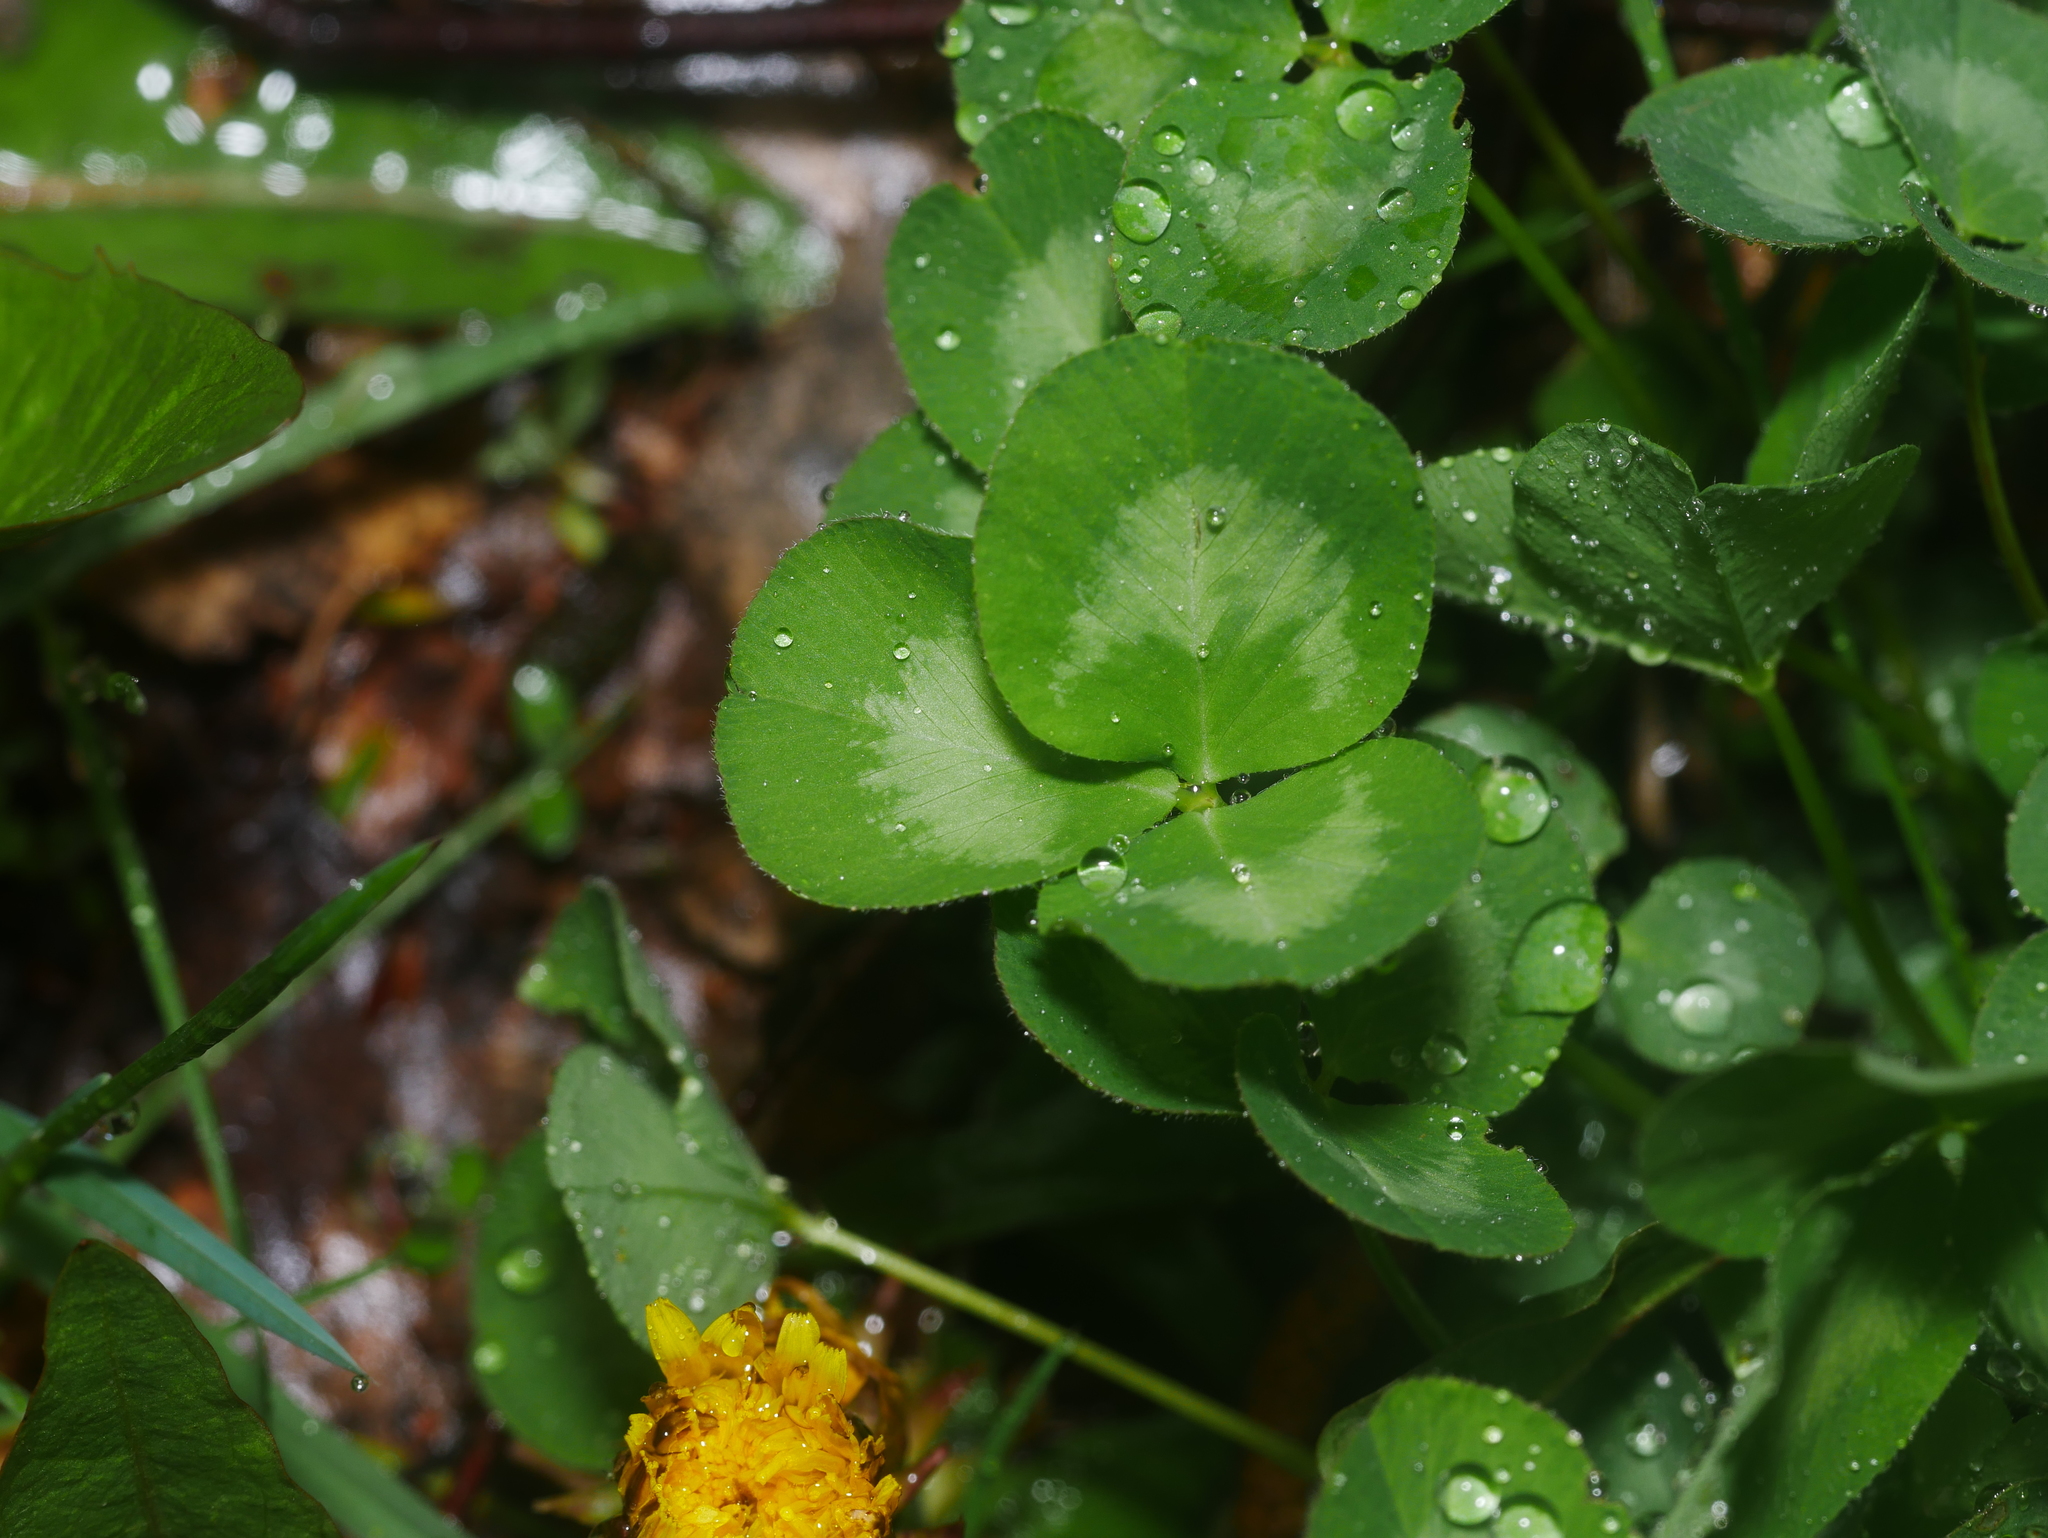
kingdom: Plantae
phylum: Tracheophyta
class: Magnoliopsida
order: Fabales
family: Fabaceae
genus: Trifolium
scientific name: Trifolium repens
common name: White clover
